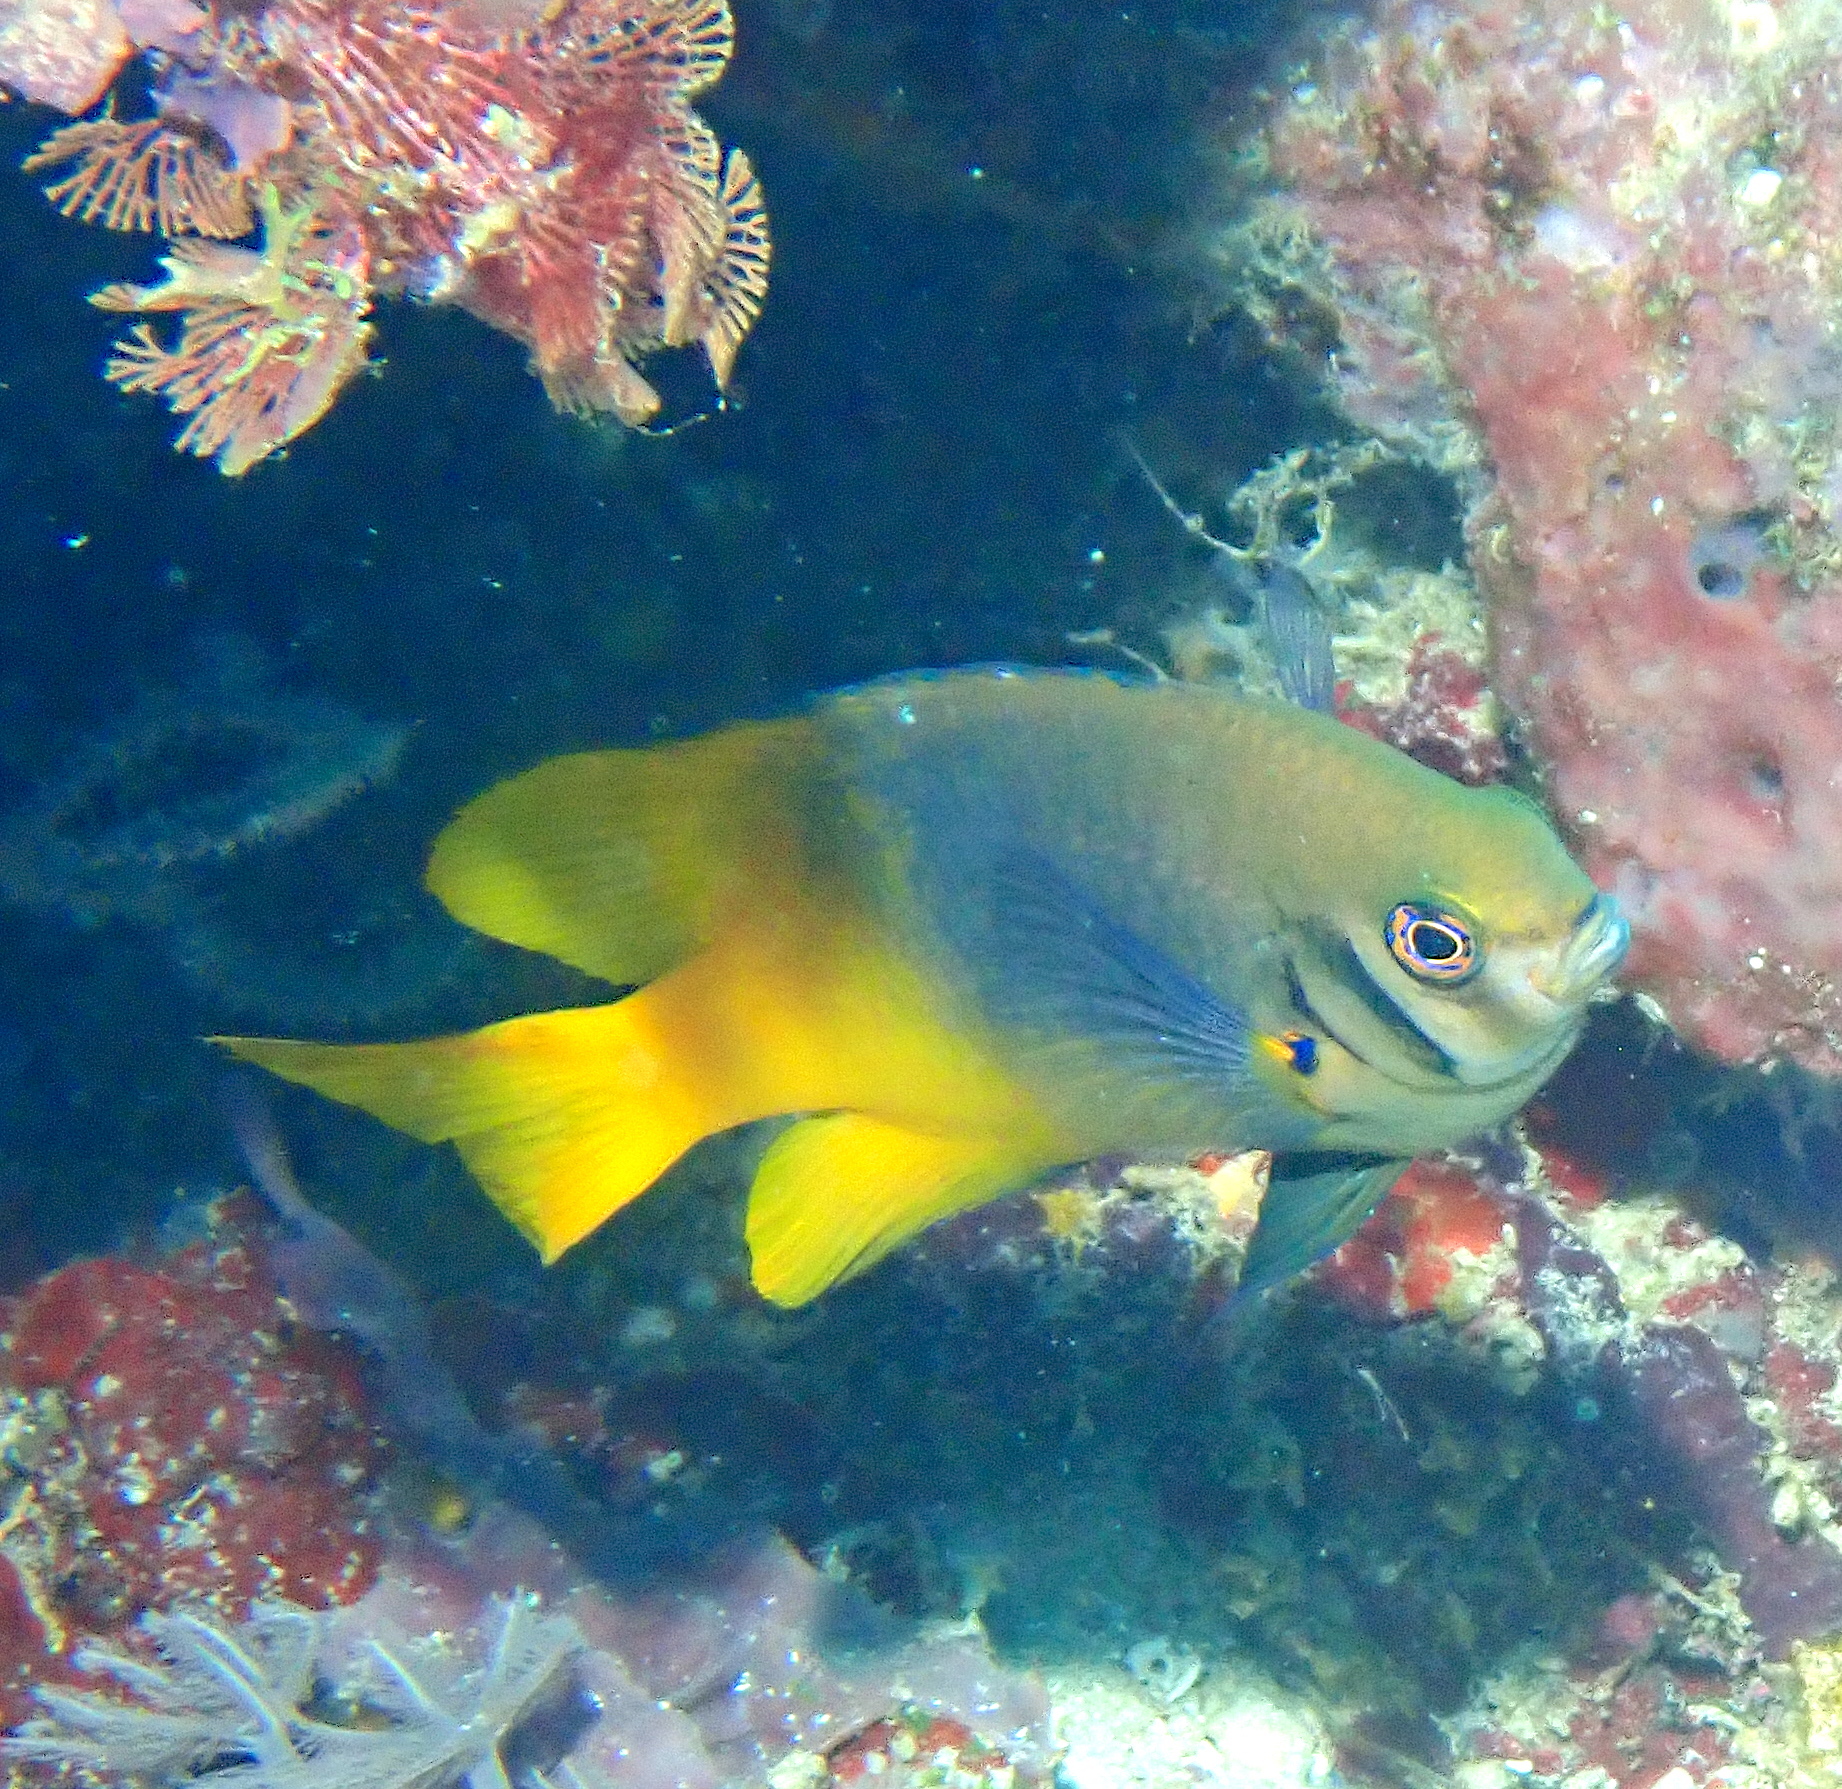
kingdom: Animalia
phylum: Chordata
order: Perciformes
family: Pomacentridae
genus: Neoglyphidodon
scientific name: Neoglyphidodon nigroris
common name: Behn's damsel
